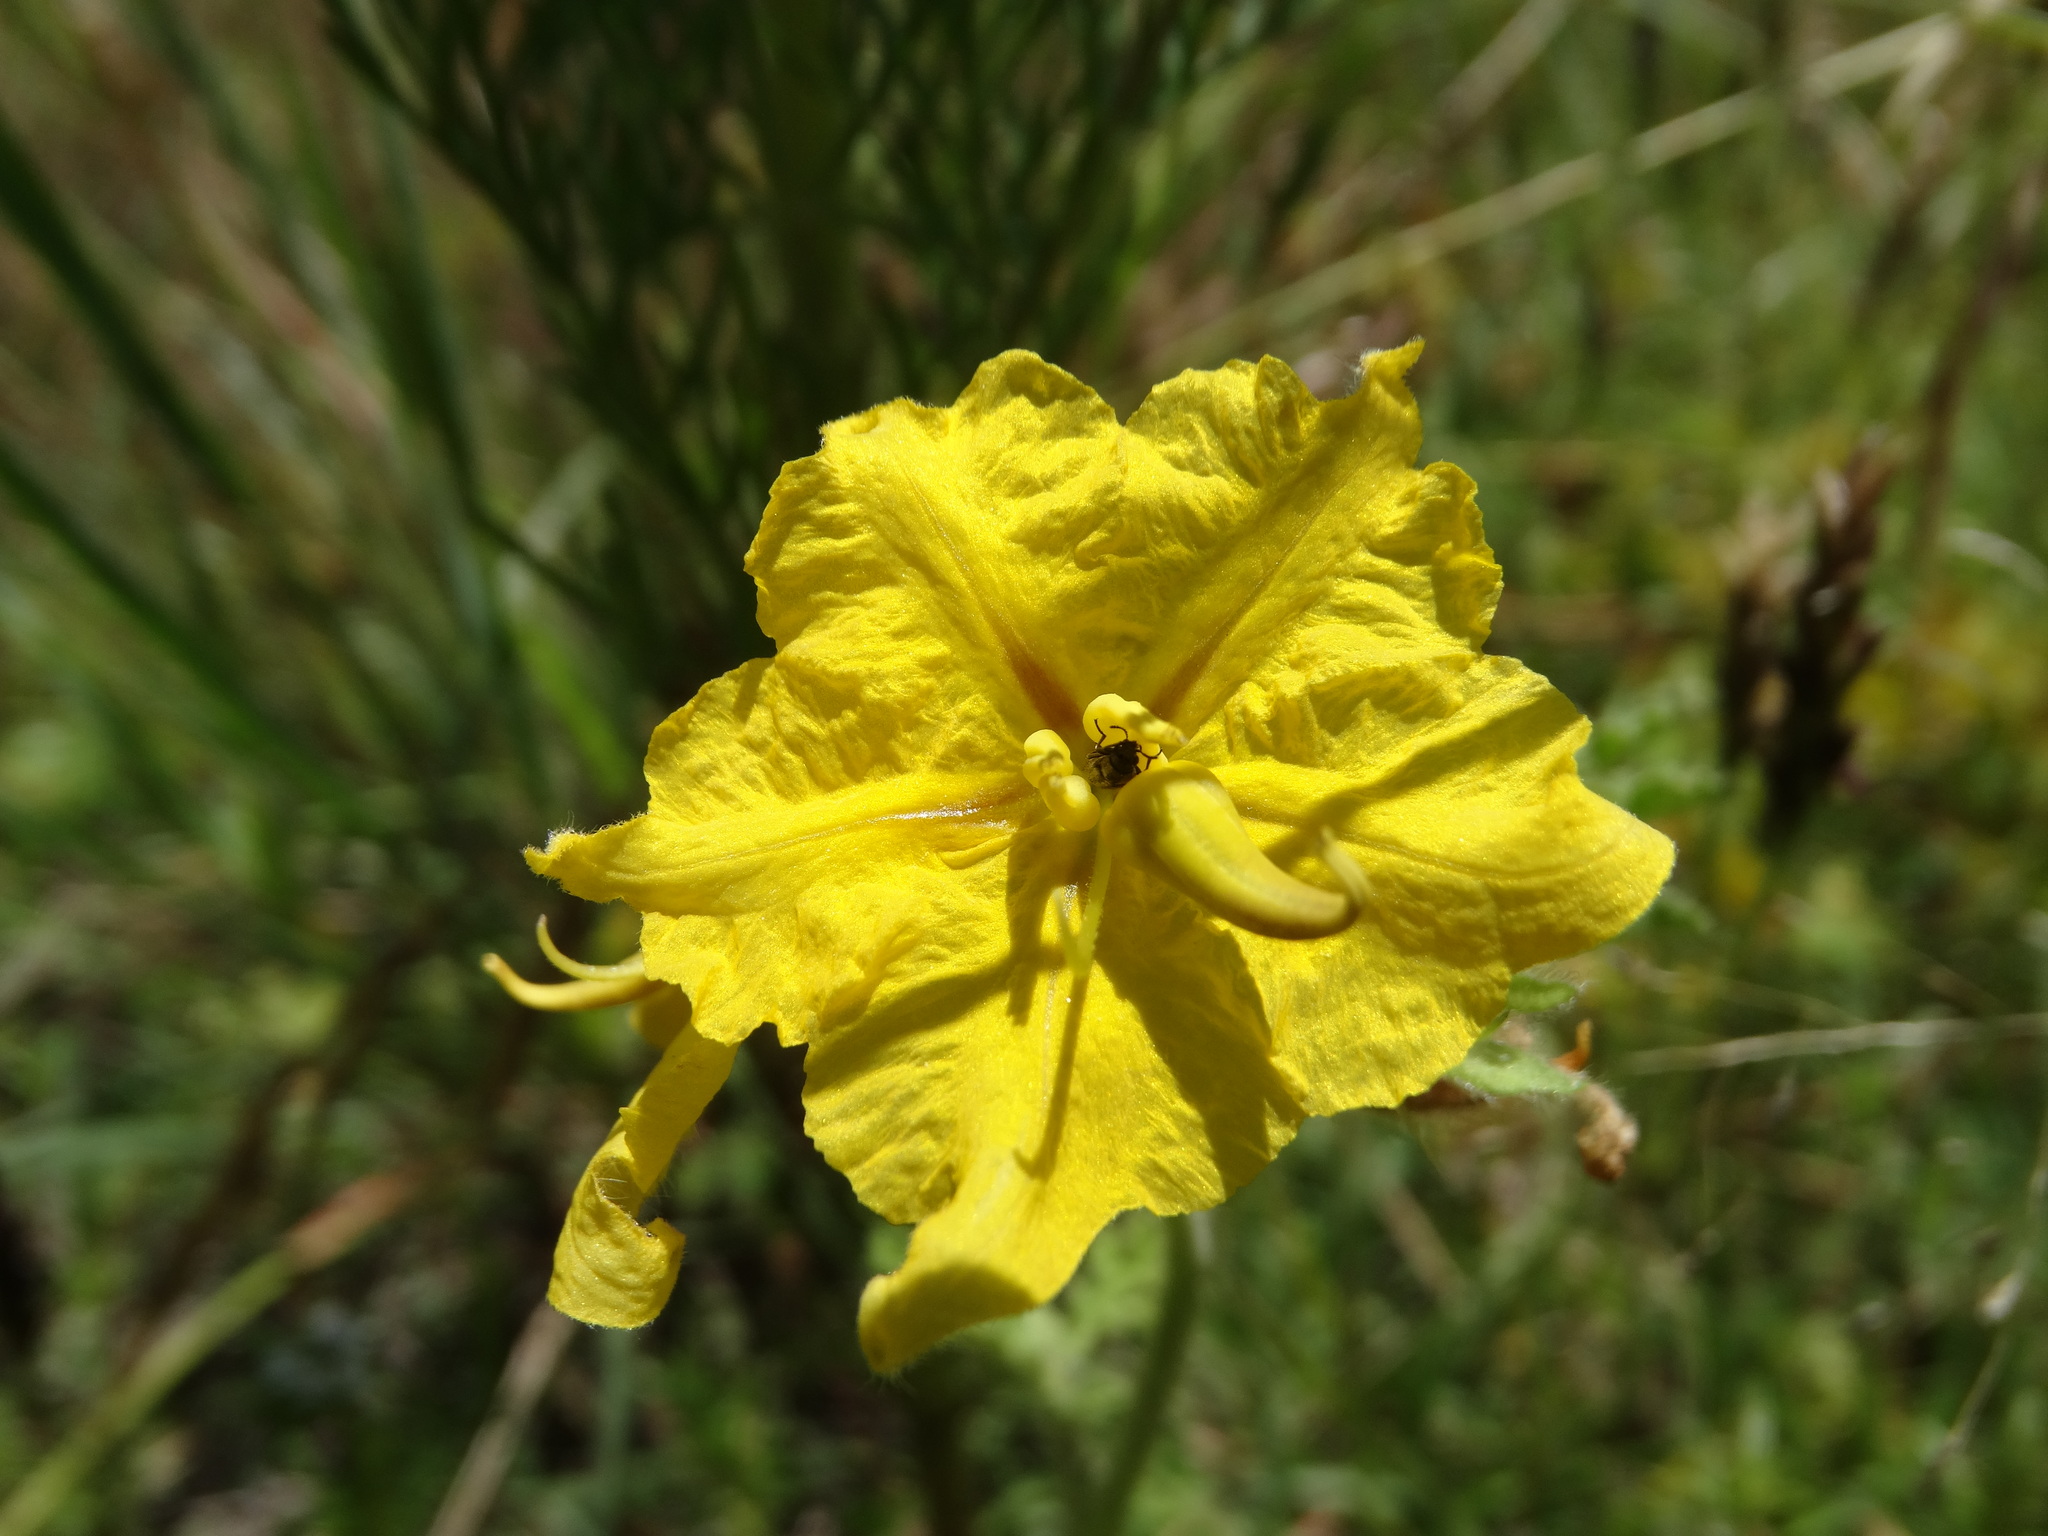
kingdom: Plantae
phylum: Tracheophyta
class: Magnoliopsida
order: Solanales
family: Solanaceae
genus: Solanum
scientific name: Solanum angustifolium
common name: Buffalobur nightshade
